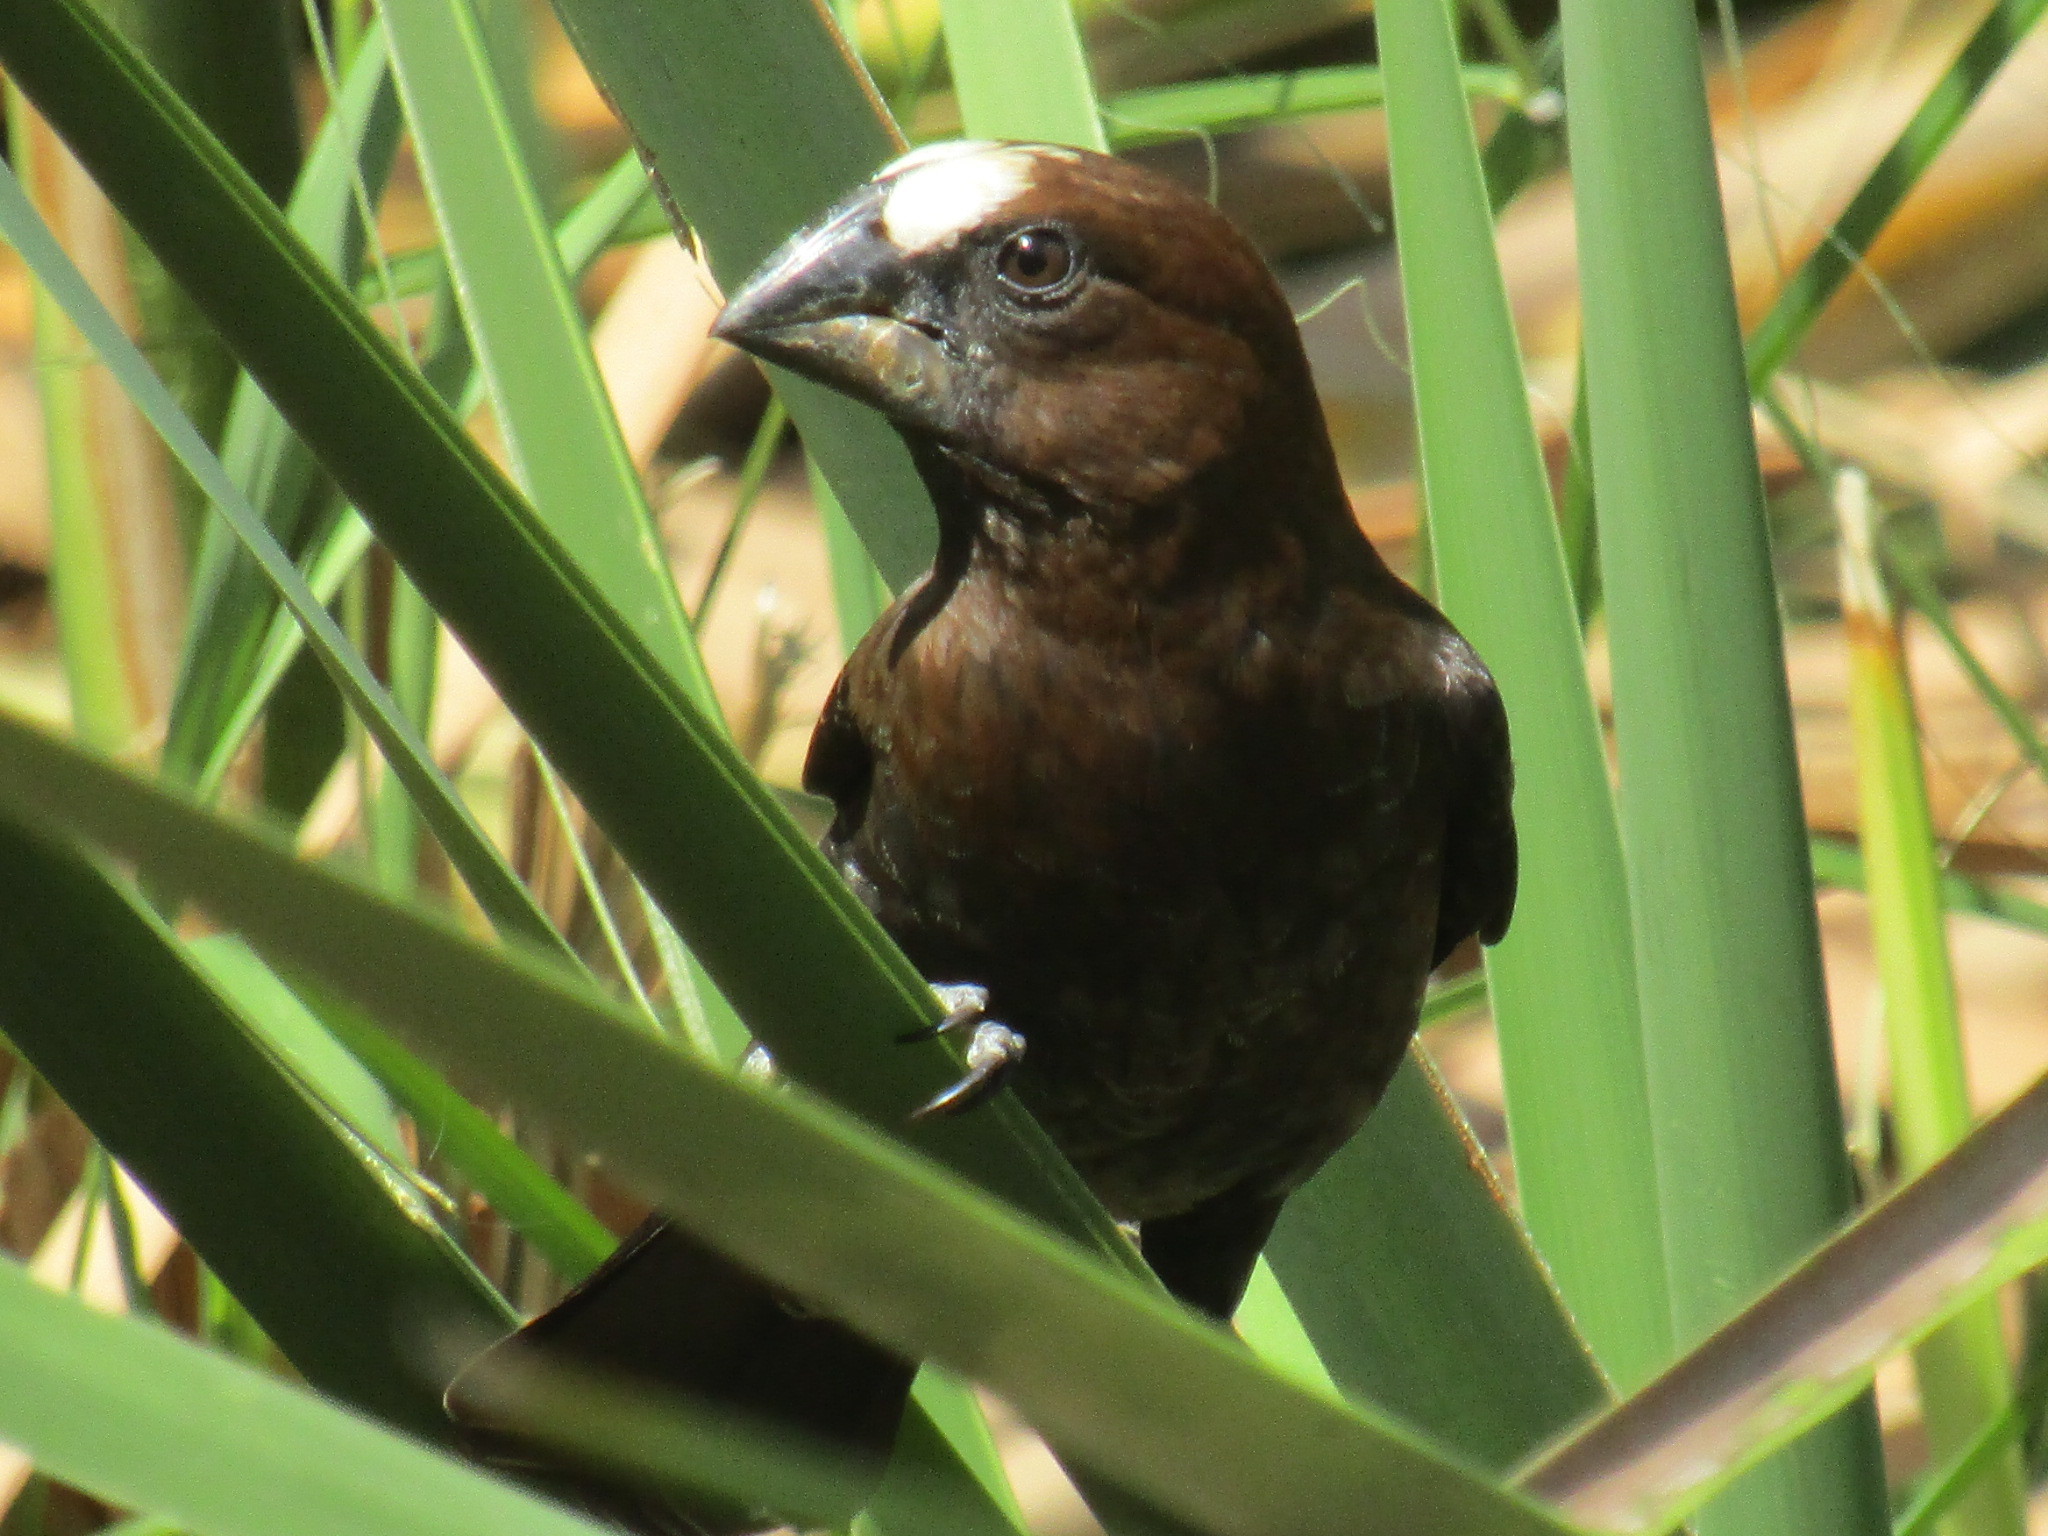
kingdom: Animalia
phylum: Chordata
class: Aves
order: Passeriformes
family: Ploceidae
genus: Amblyospiza
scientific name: Amblyospiza albifrons
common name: Thick-billed weaver
